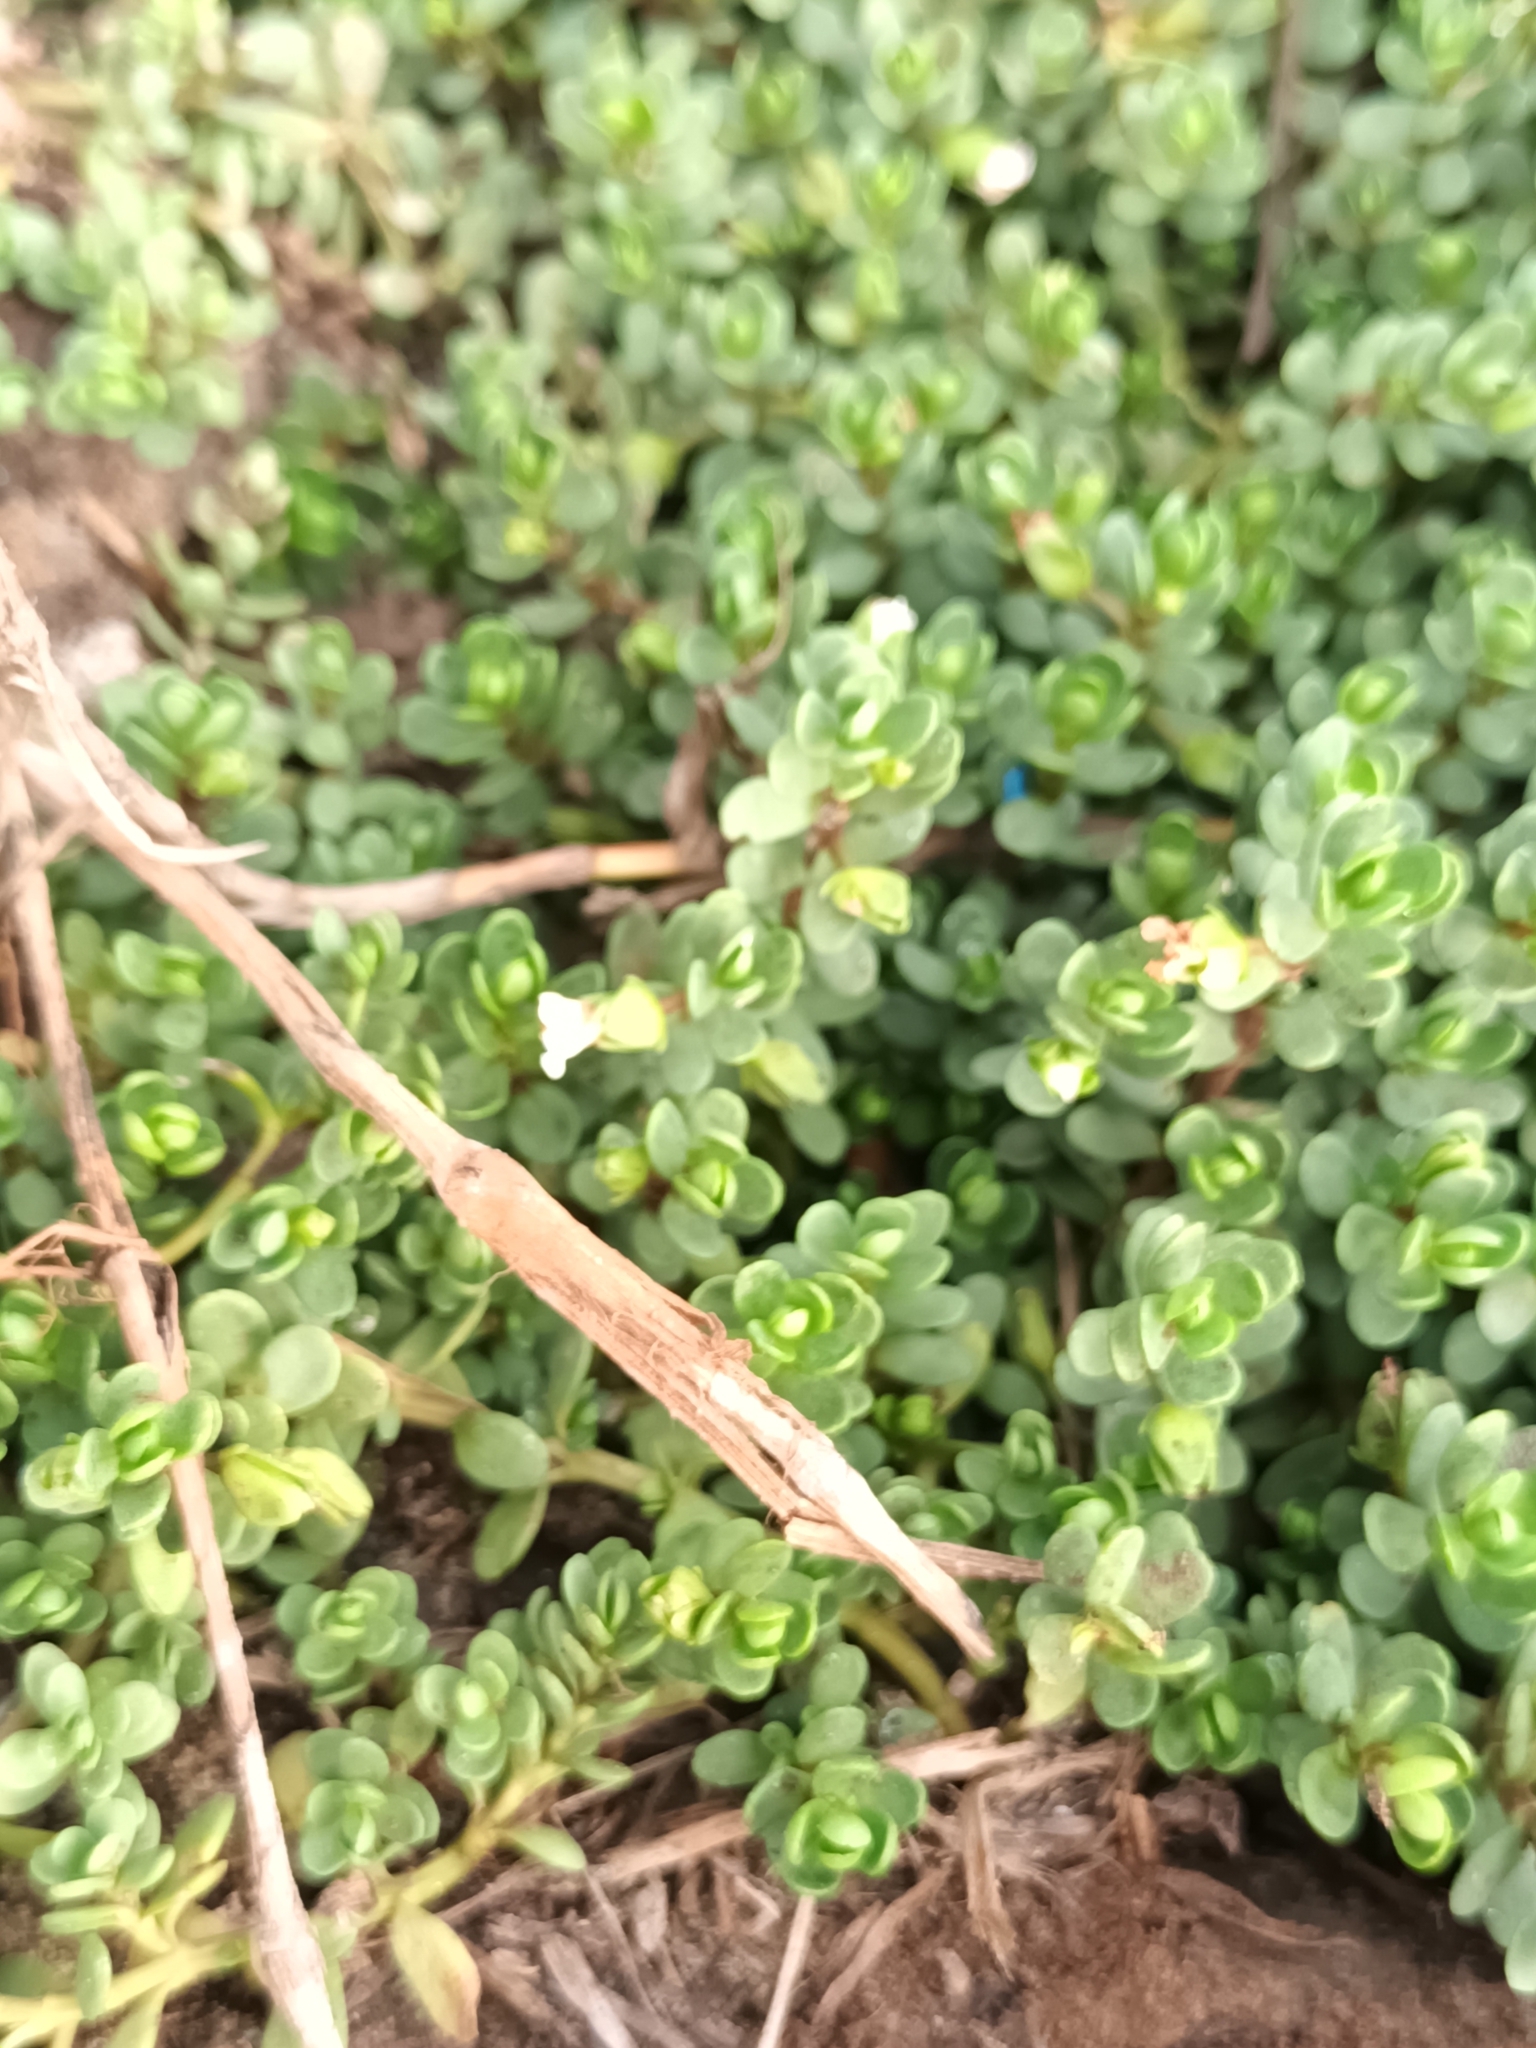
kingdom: Plantae
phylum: Tracheophyta
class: Magnoliopsida
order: Lamiales
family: Plantaginaceae
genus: Bacopa
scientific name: Bacopa monnieri
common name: Indian-pennywort
